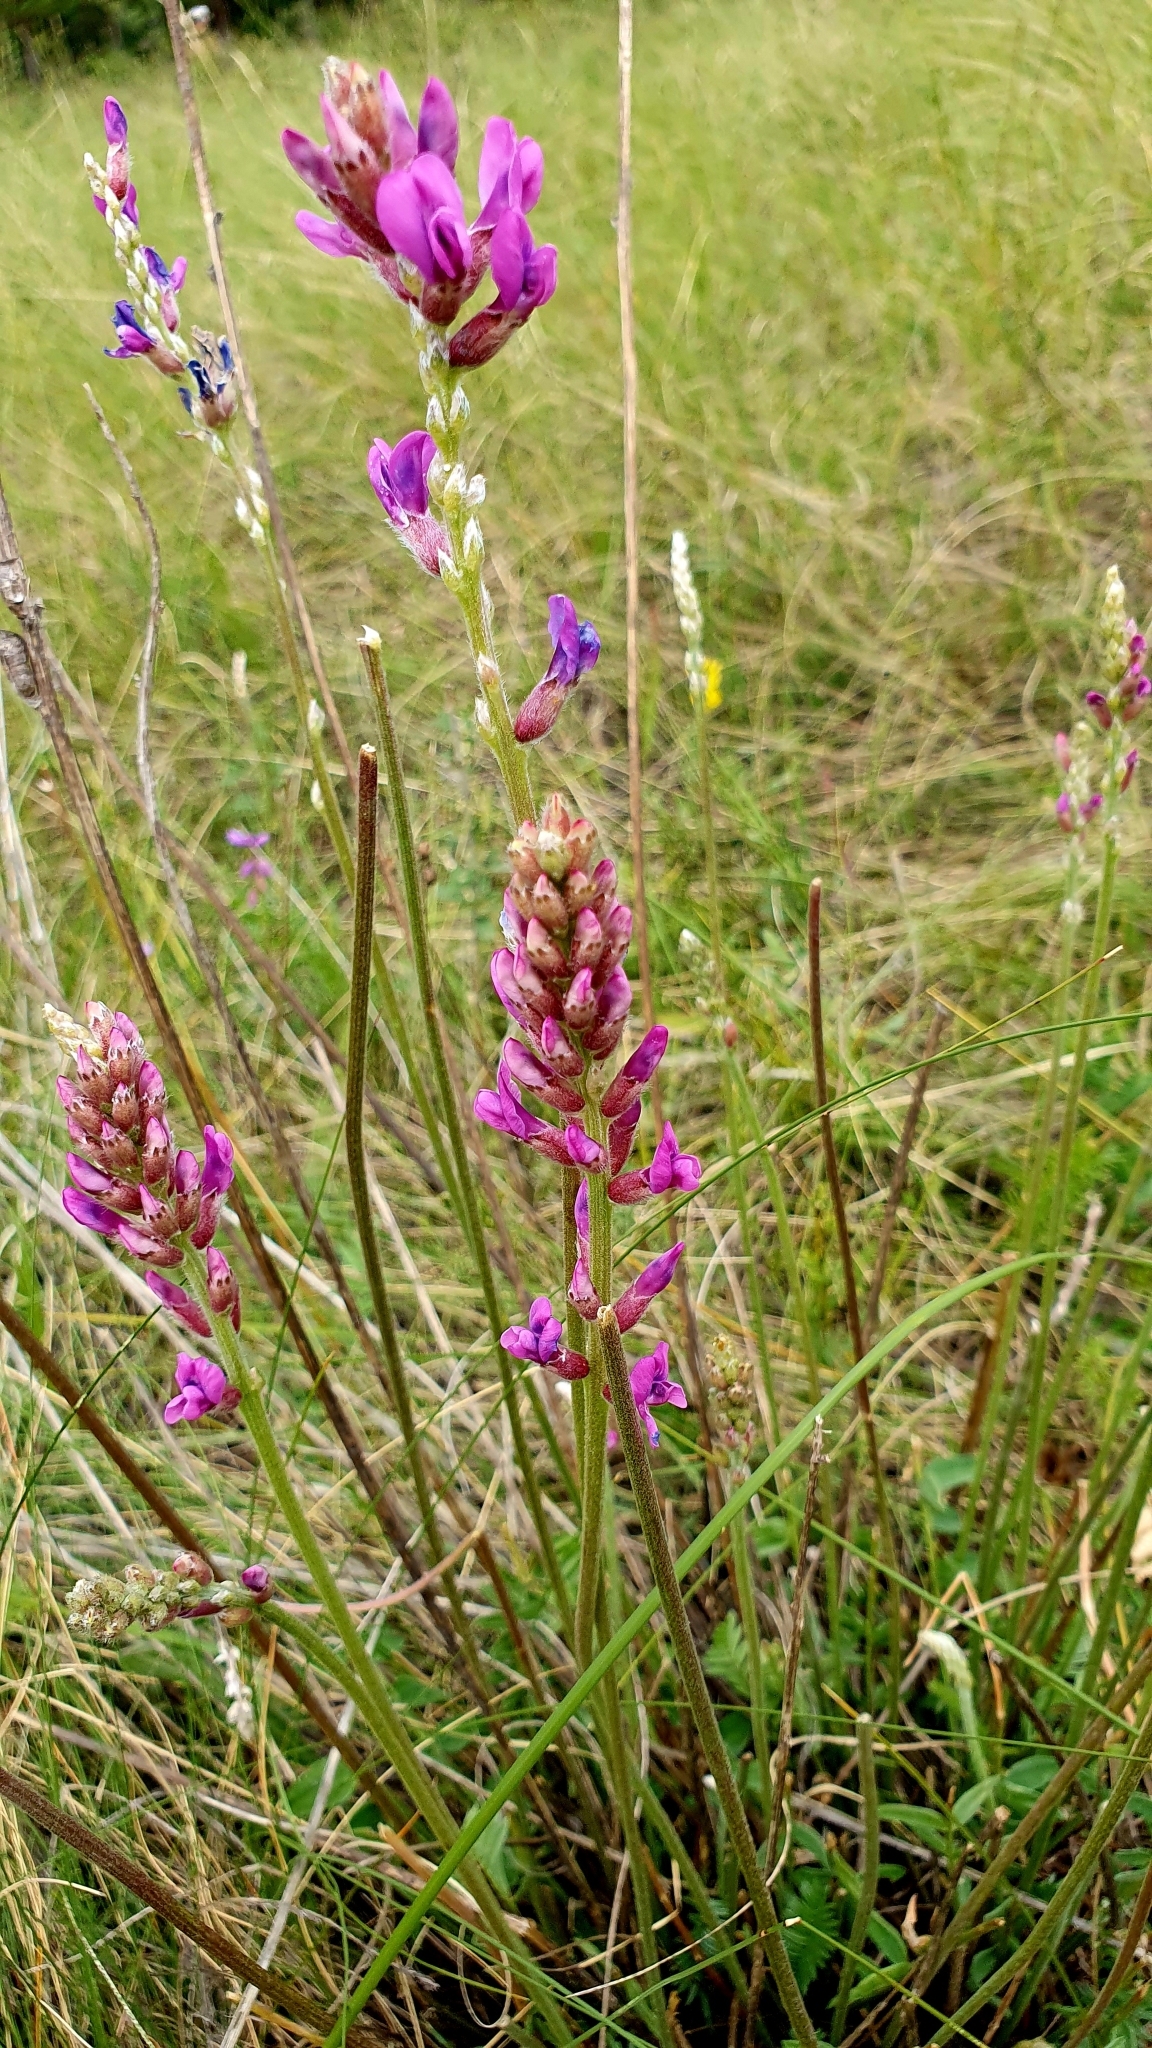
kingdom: Plantae
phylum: Tracheophyta
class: Magnoliopsida
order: Fabales
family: Fabaceae
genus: Oxytropis
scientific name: Oxytropis knjazevii
